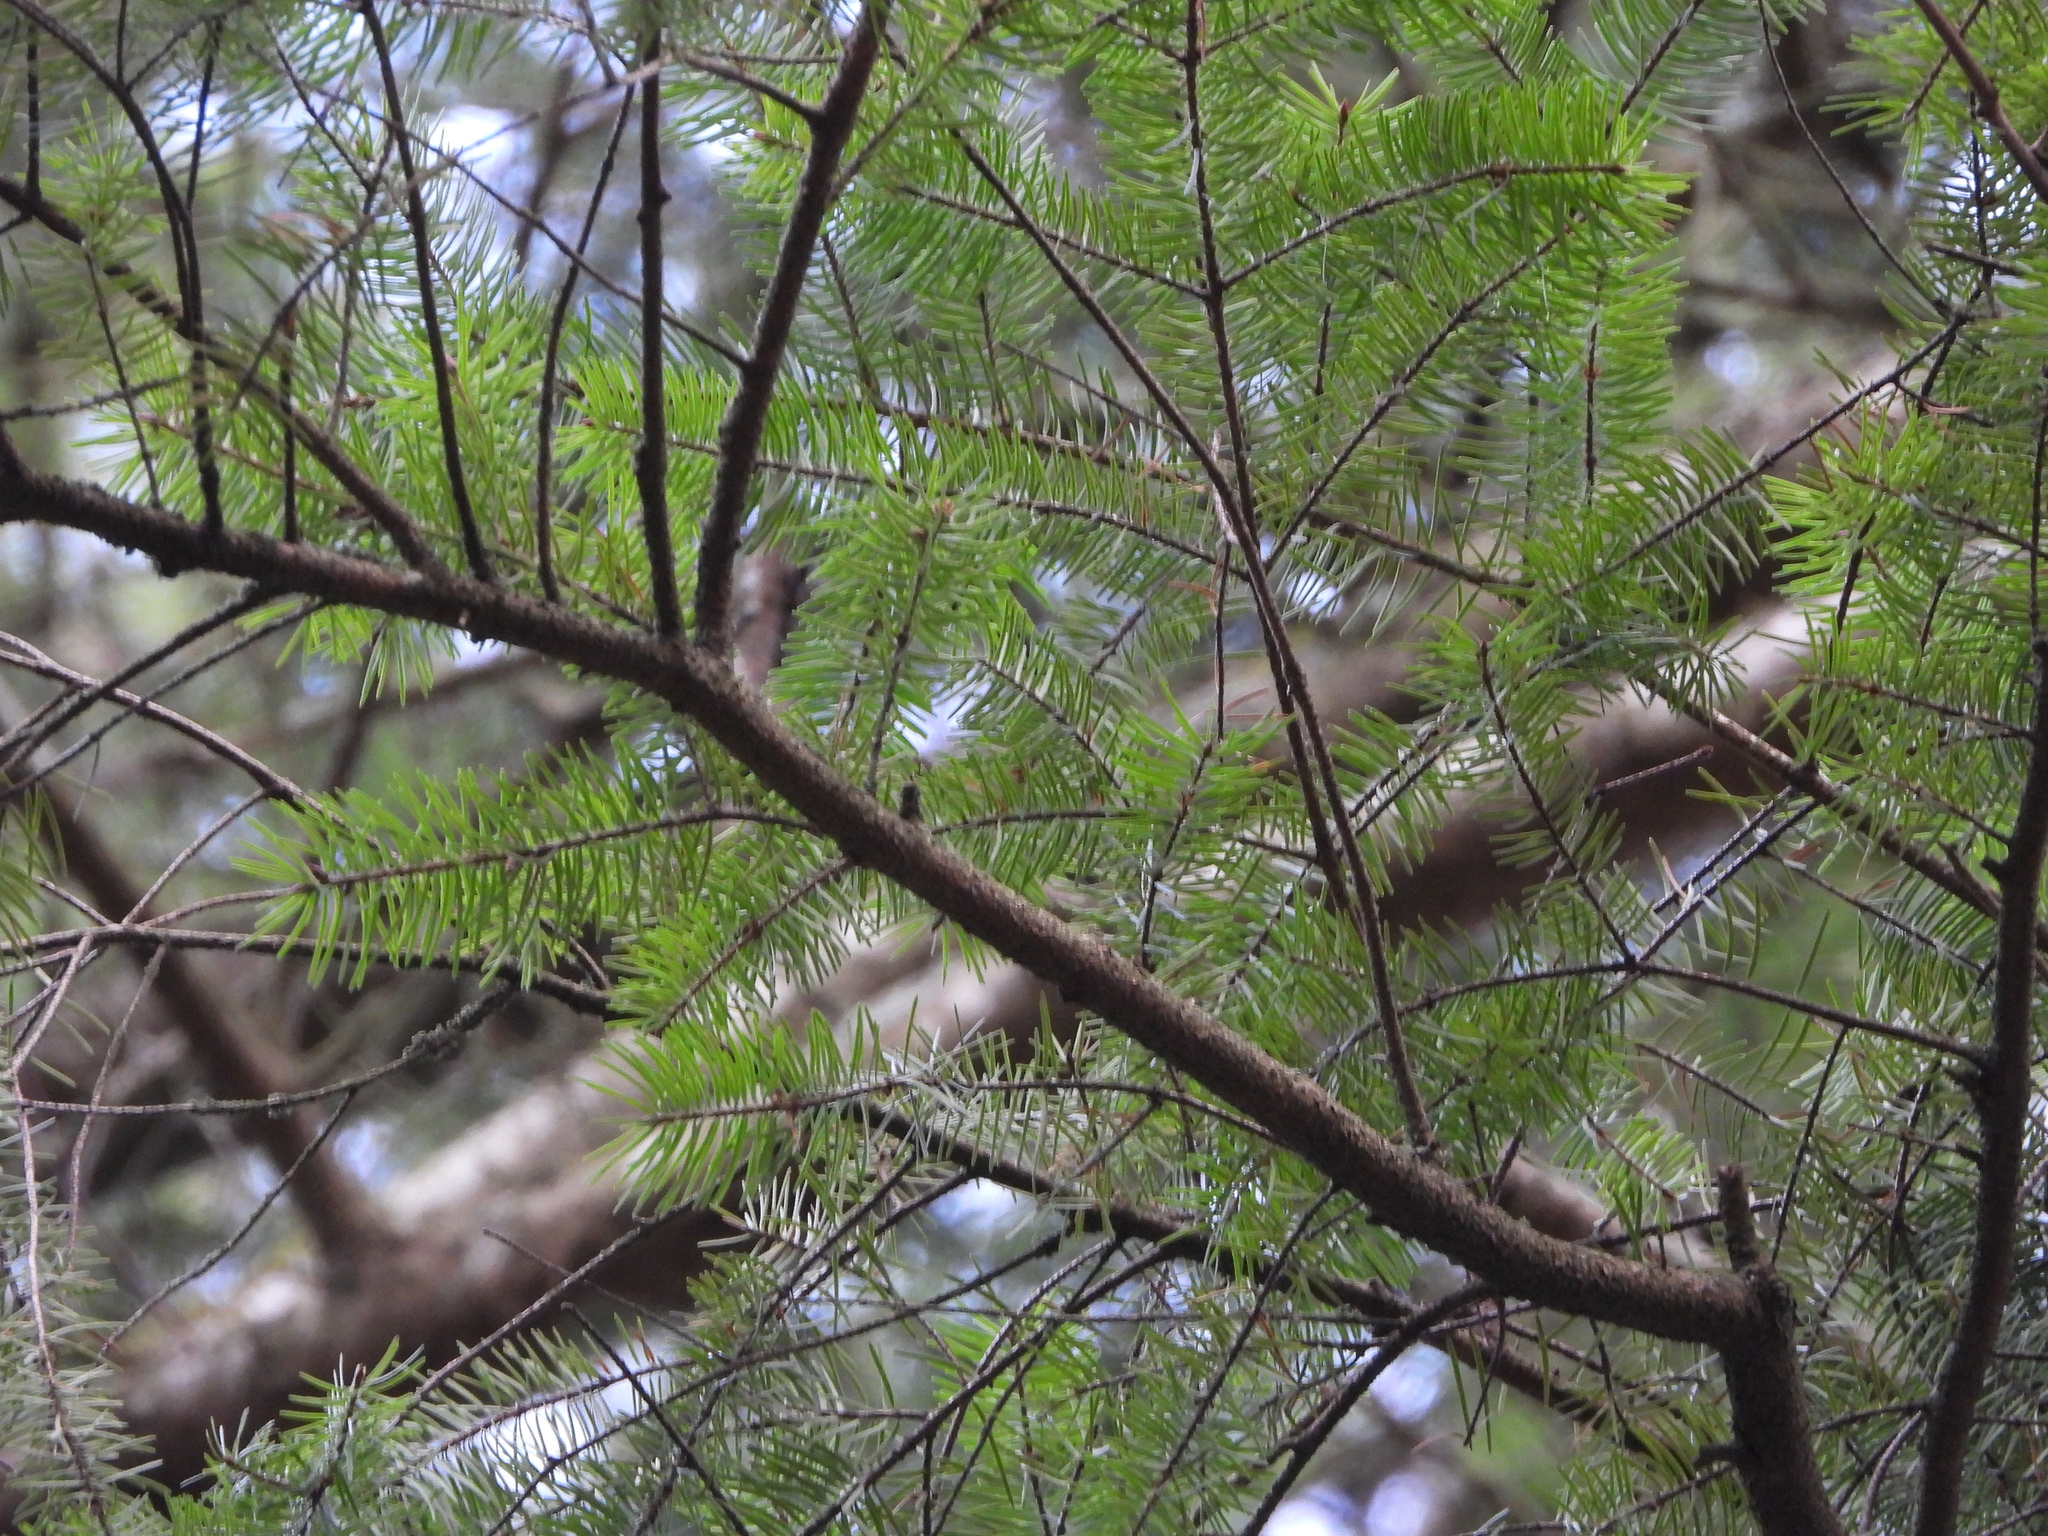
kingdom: Plantae
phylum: Tracheophyta
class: Pinopsida
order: Pinales
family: Pinaceae
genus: Pseudotsuga
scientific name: Pseudotsuga menziesii
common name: Douglas fir
